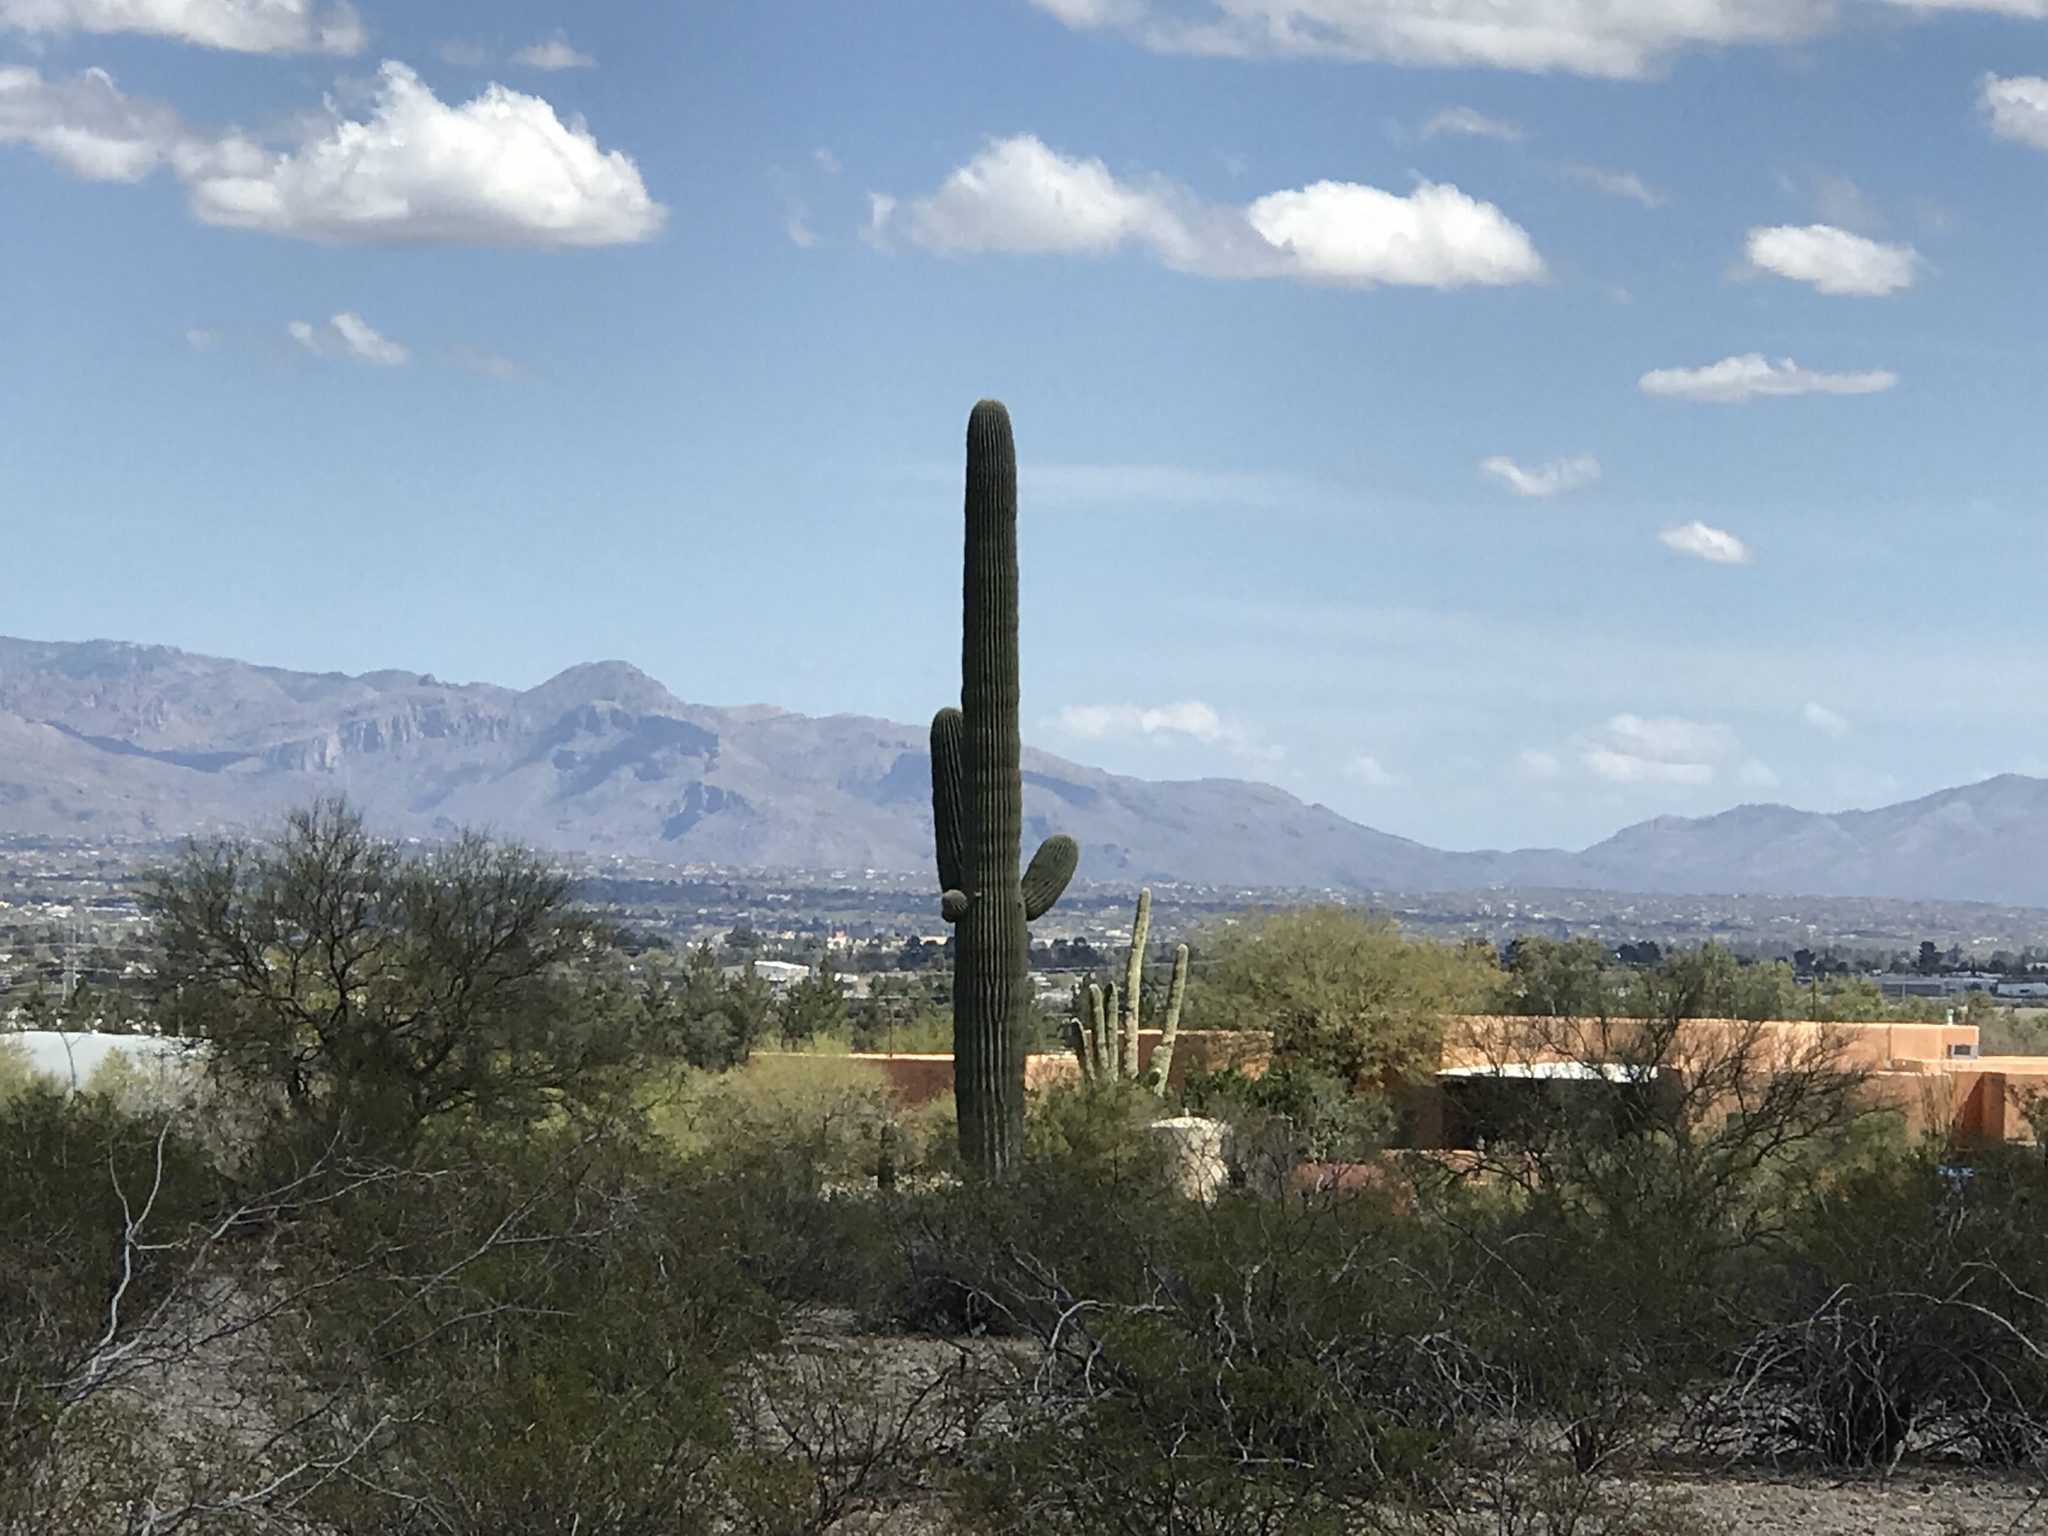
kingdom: Plantae
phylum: Tracheophyta
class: Magnoliopsida
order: Caryophyllales
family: Cactaceae
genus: Carnegiea
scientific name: Carnegiea gigantea
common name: Saguaro
